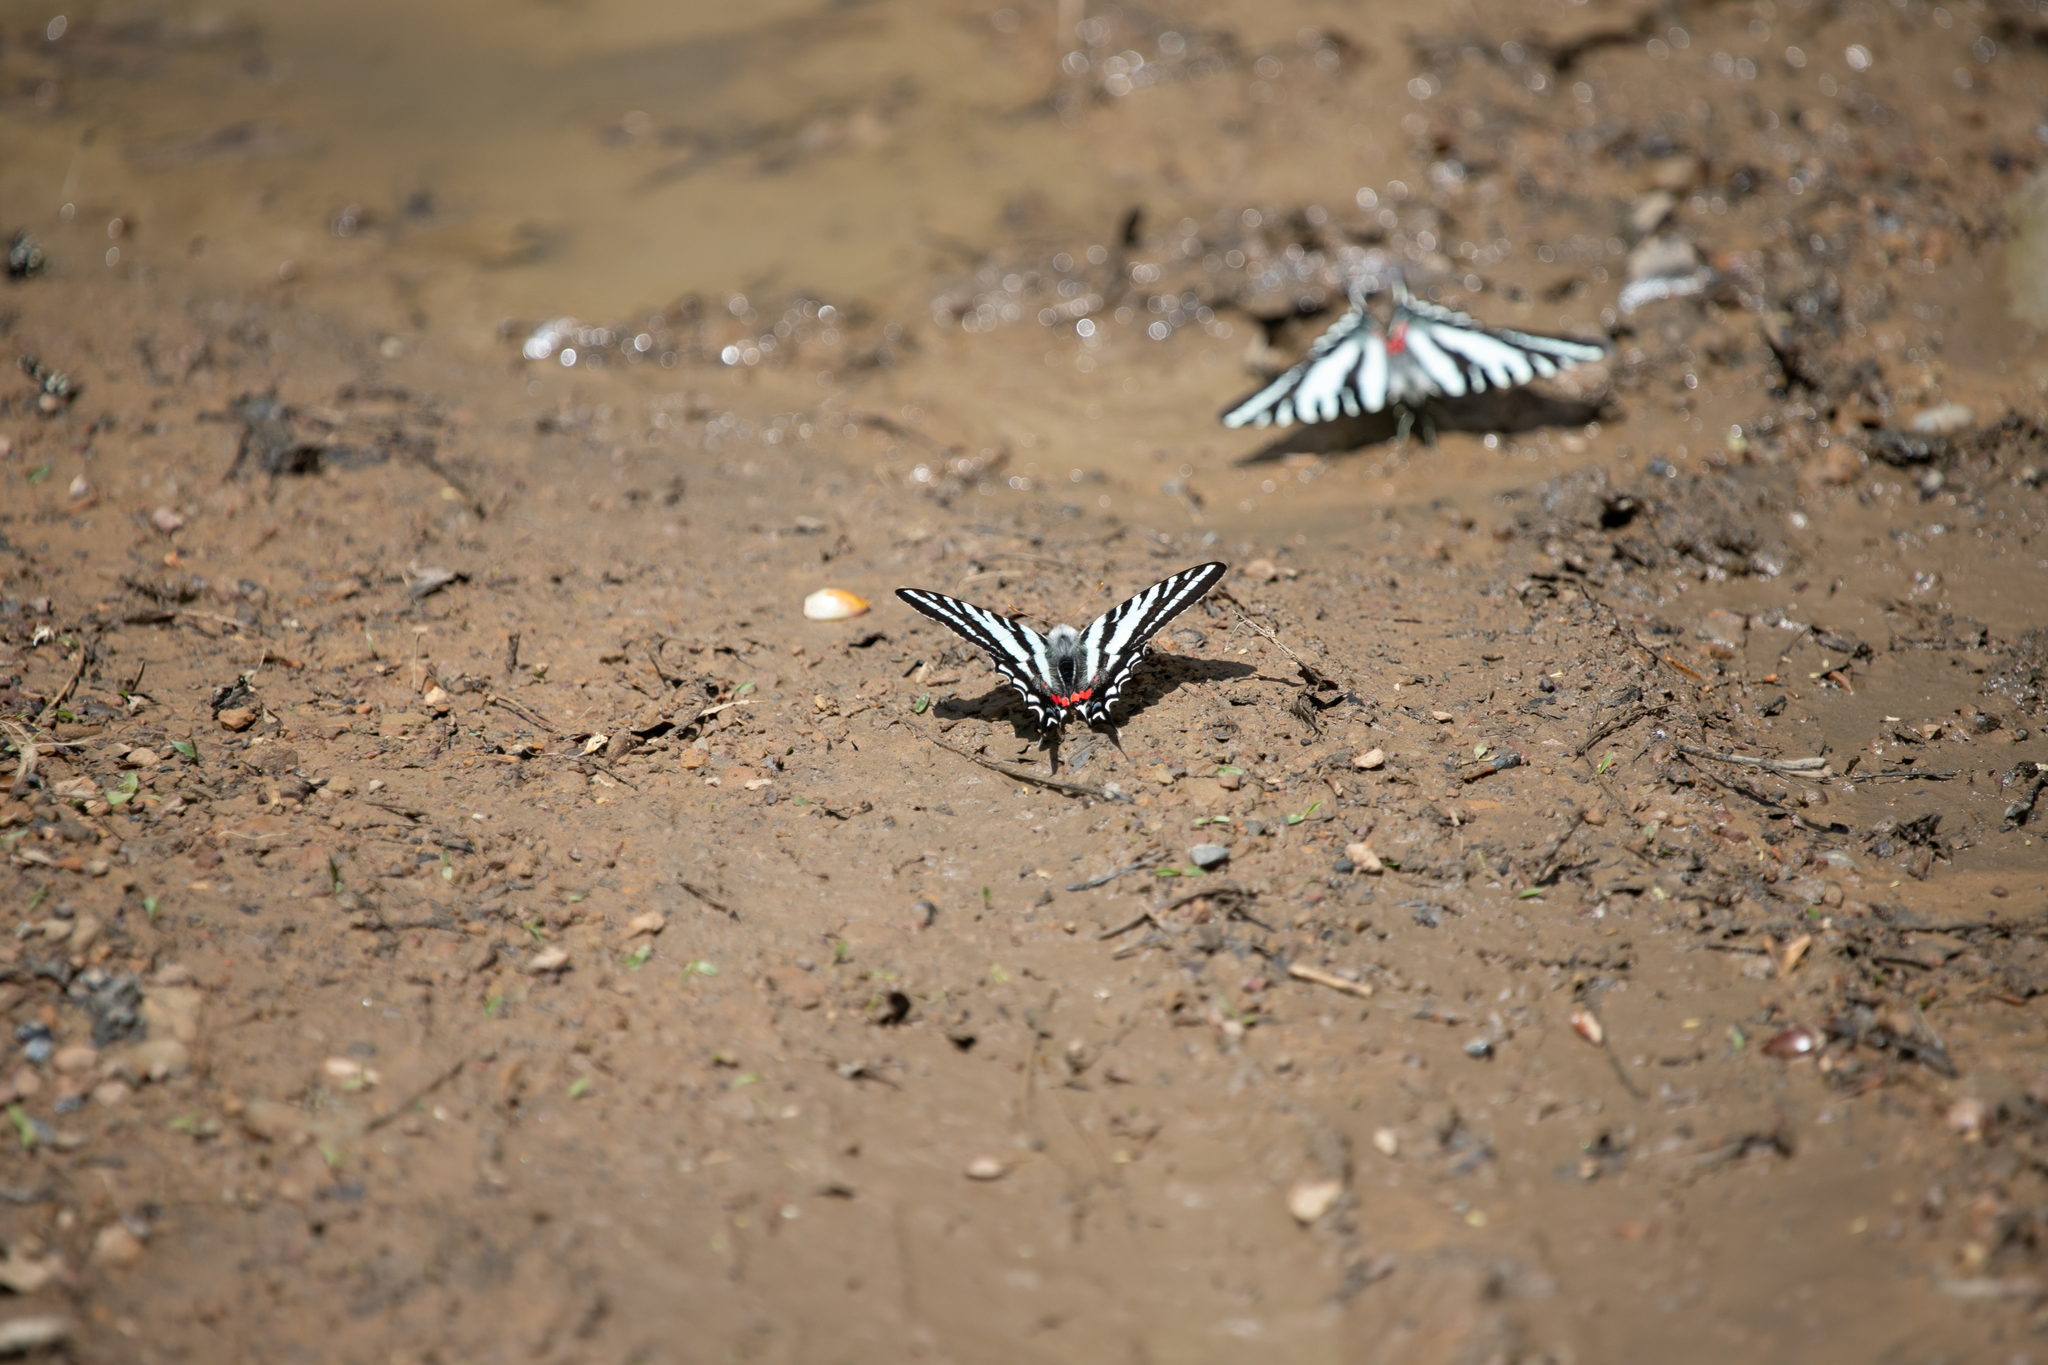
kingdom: Animalia
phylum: Arthropoda
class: Insecta
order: Lepidoptera
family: Papilionidae
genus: Protographium
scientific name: Protographium marcellus
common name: Zebra swallowtail
